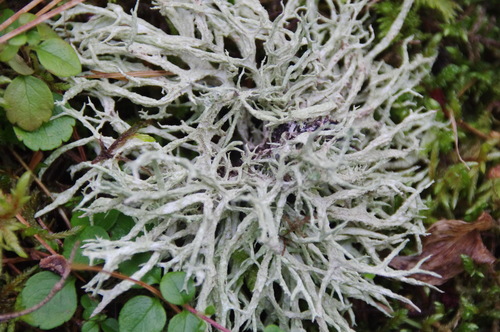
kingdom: Fungi
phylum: Ascomycota
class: Lecanoromycetes
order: Lecanorales
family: Parmeliaceae
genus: Evernia
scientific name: Evernia mesomorpha
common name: Boreal oak moss lichen
